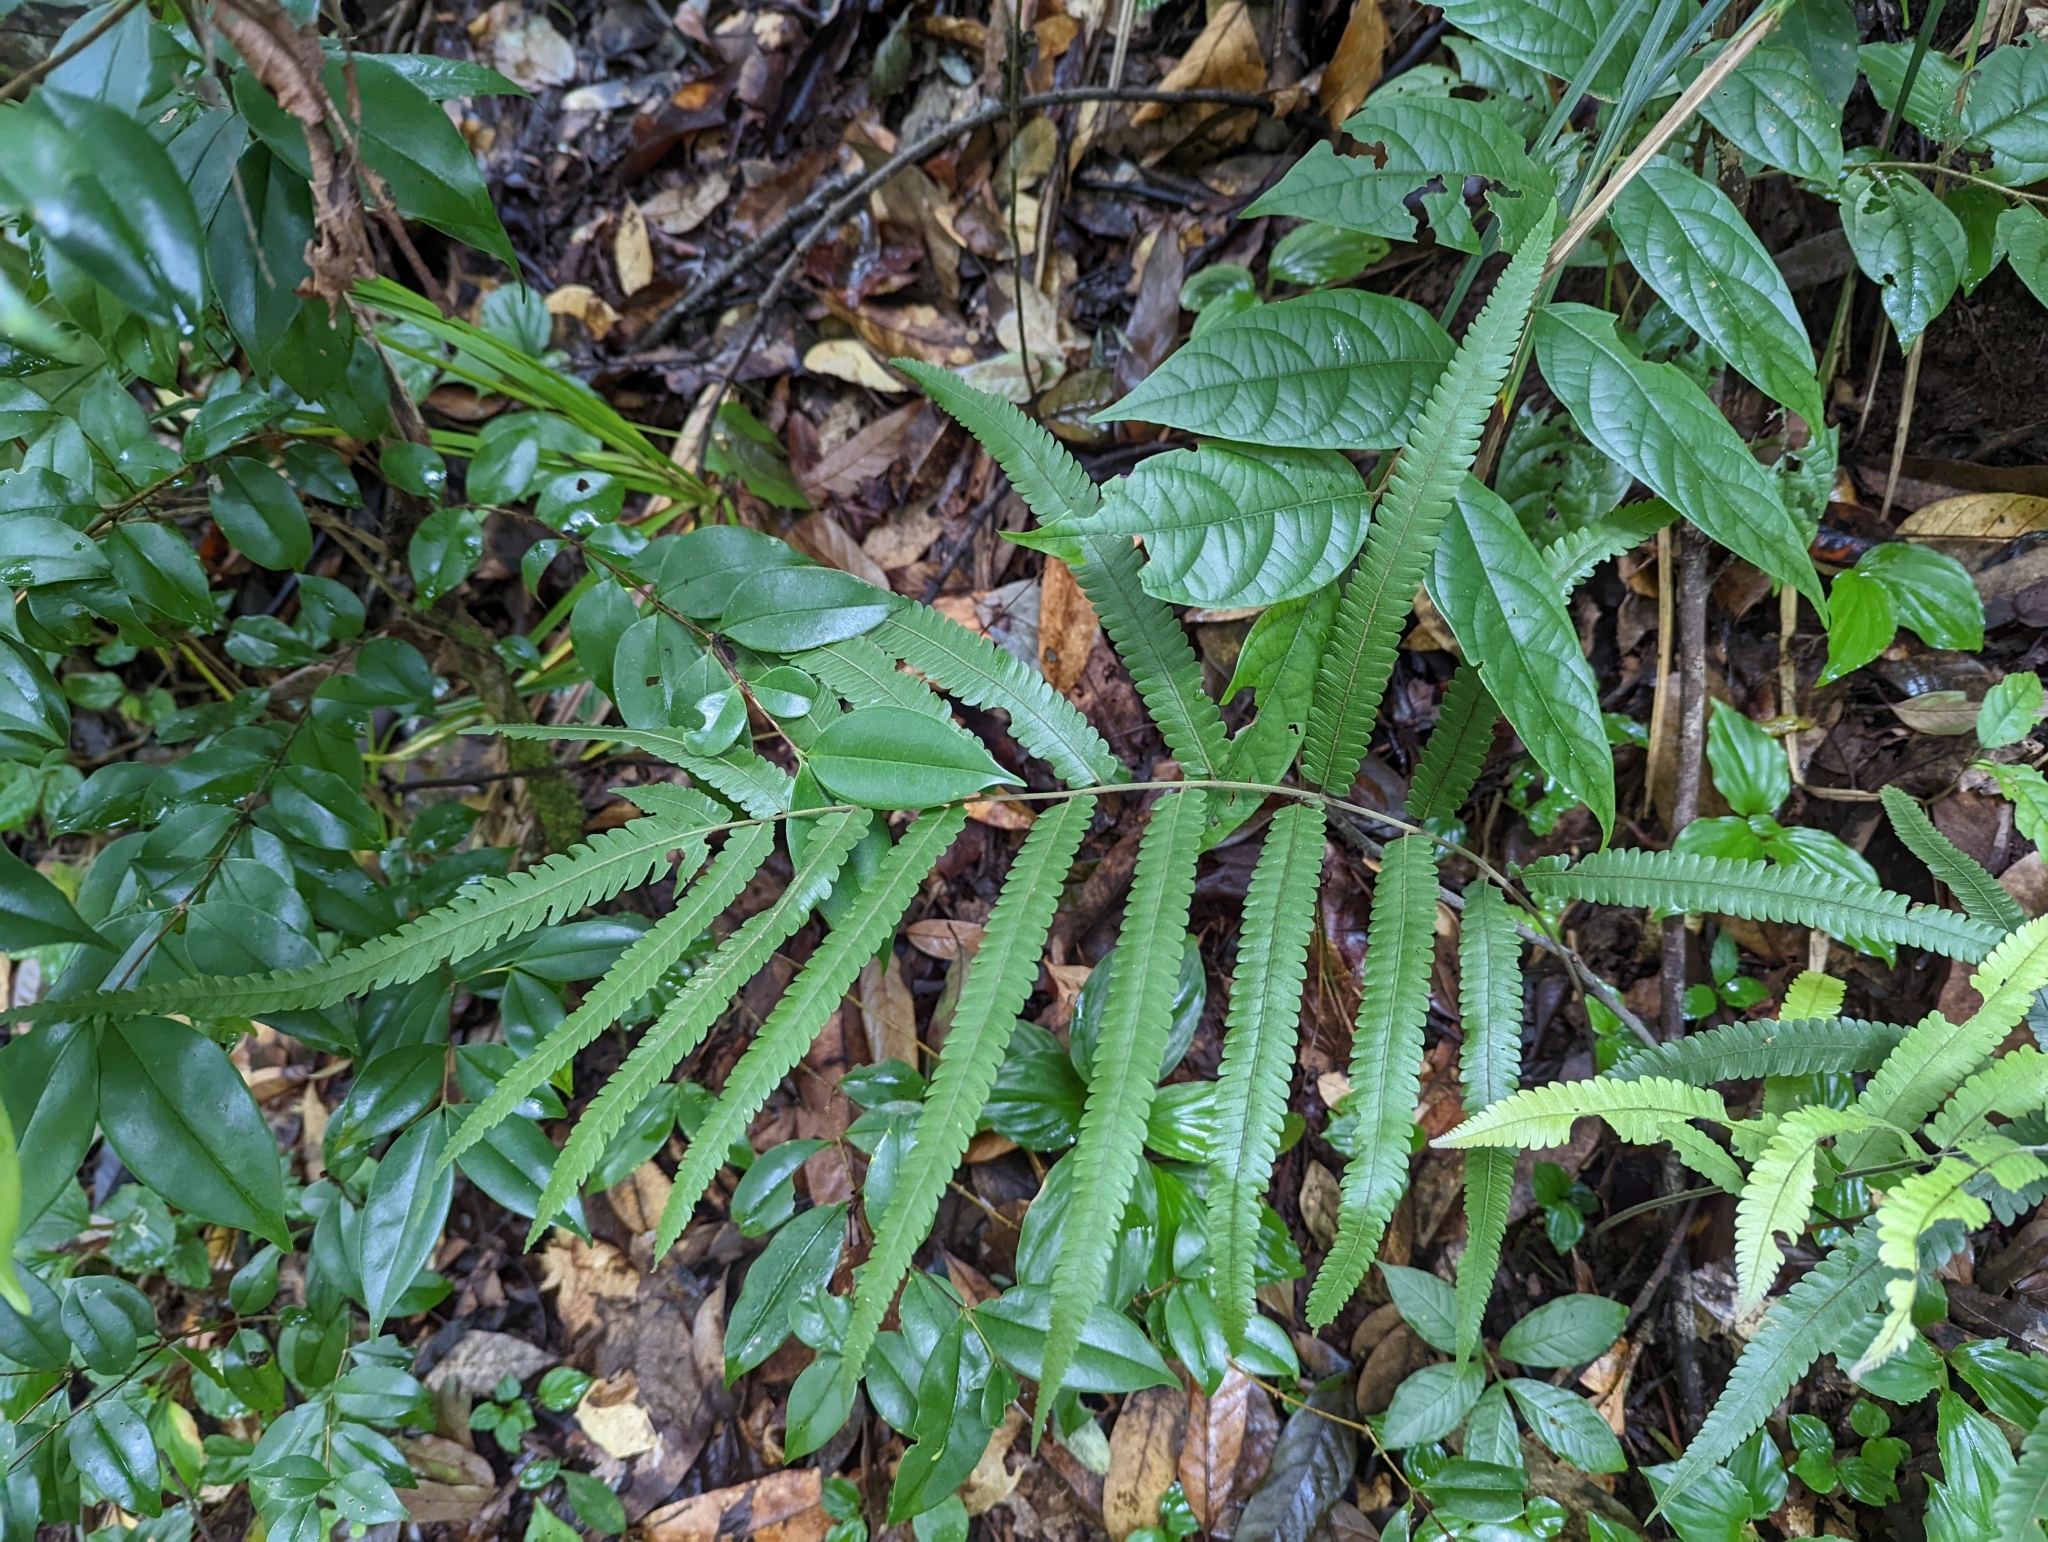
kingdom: Plantae
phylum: Tracheophyta
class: Polypodiopsida
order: Polypodiales
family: Thelypteridaceae
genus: Amblovenatum
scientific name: Amblovenatum terminans
